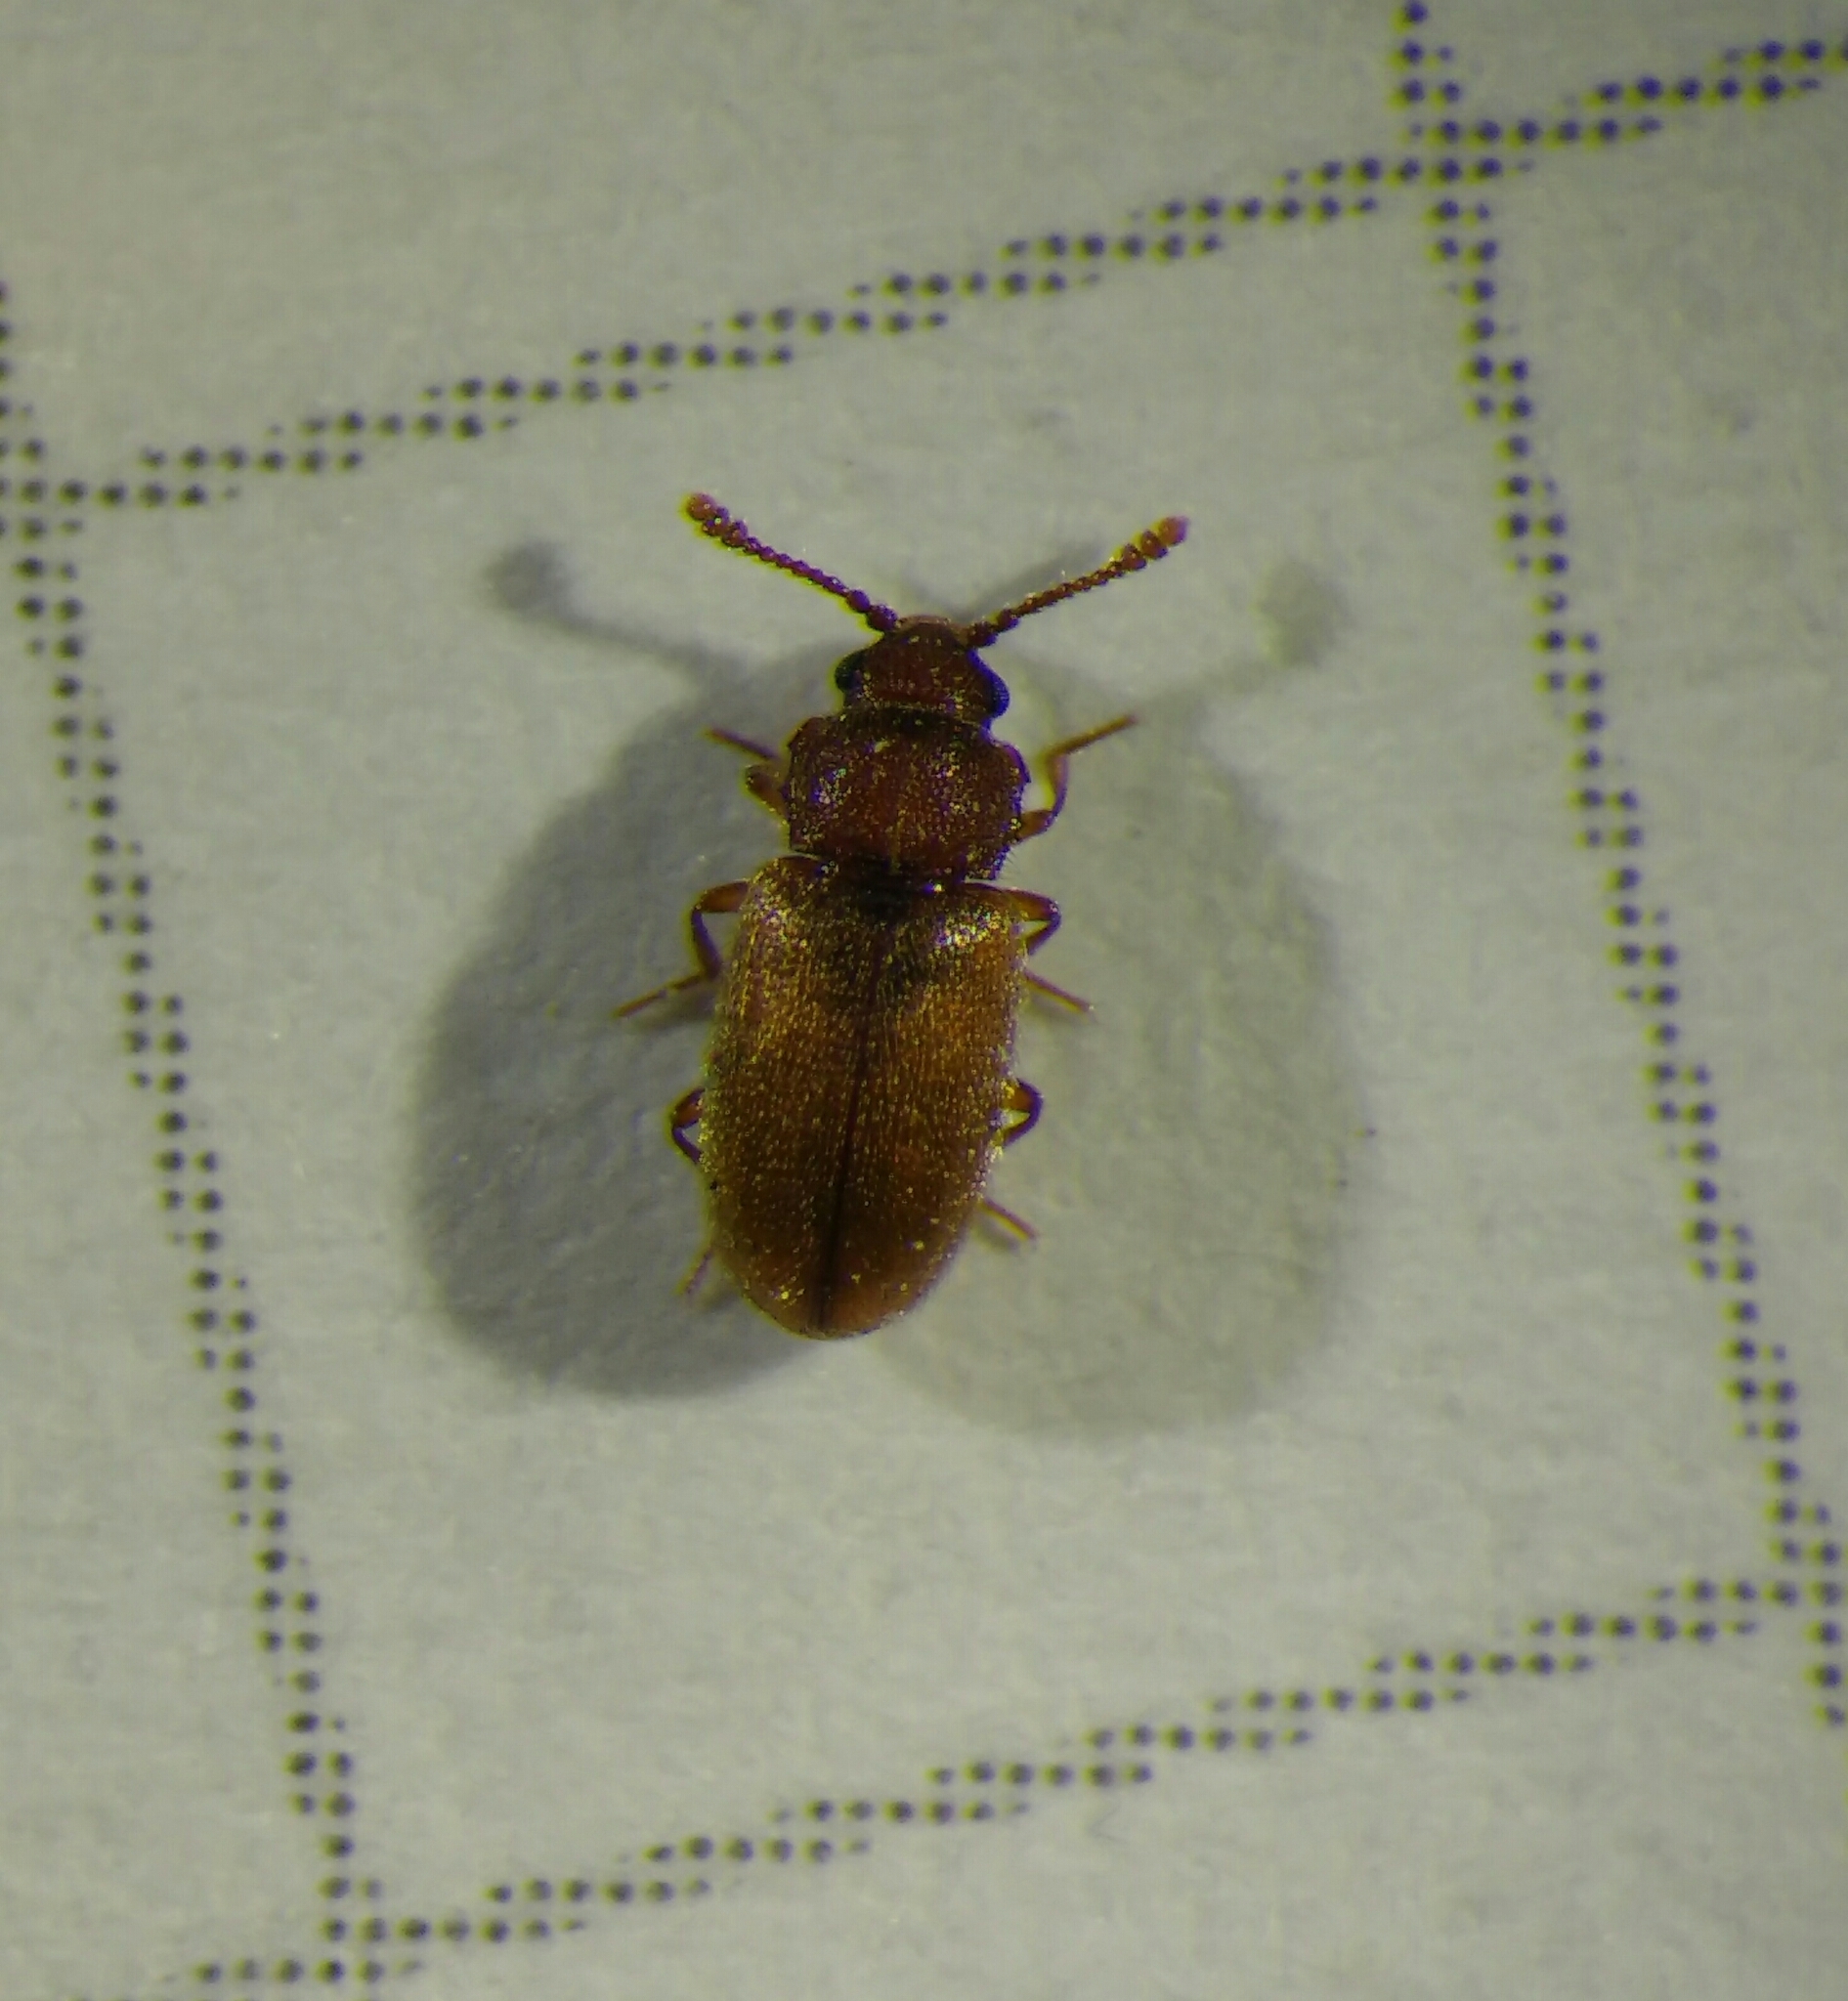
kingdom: Animalia
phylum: Arthropoda
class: Insecta
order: Coleoptera
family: Cryptophagidae
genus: Cryptophagus
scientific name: Cryptophagus
